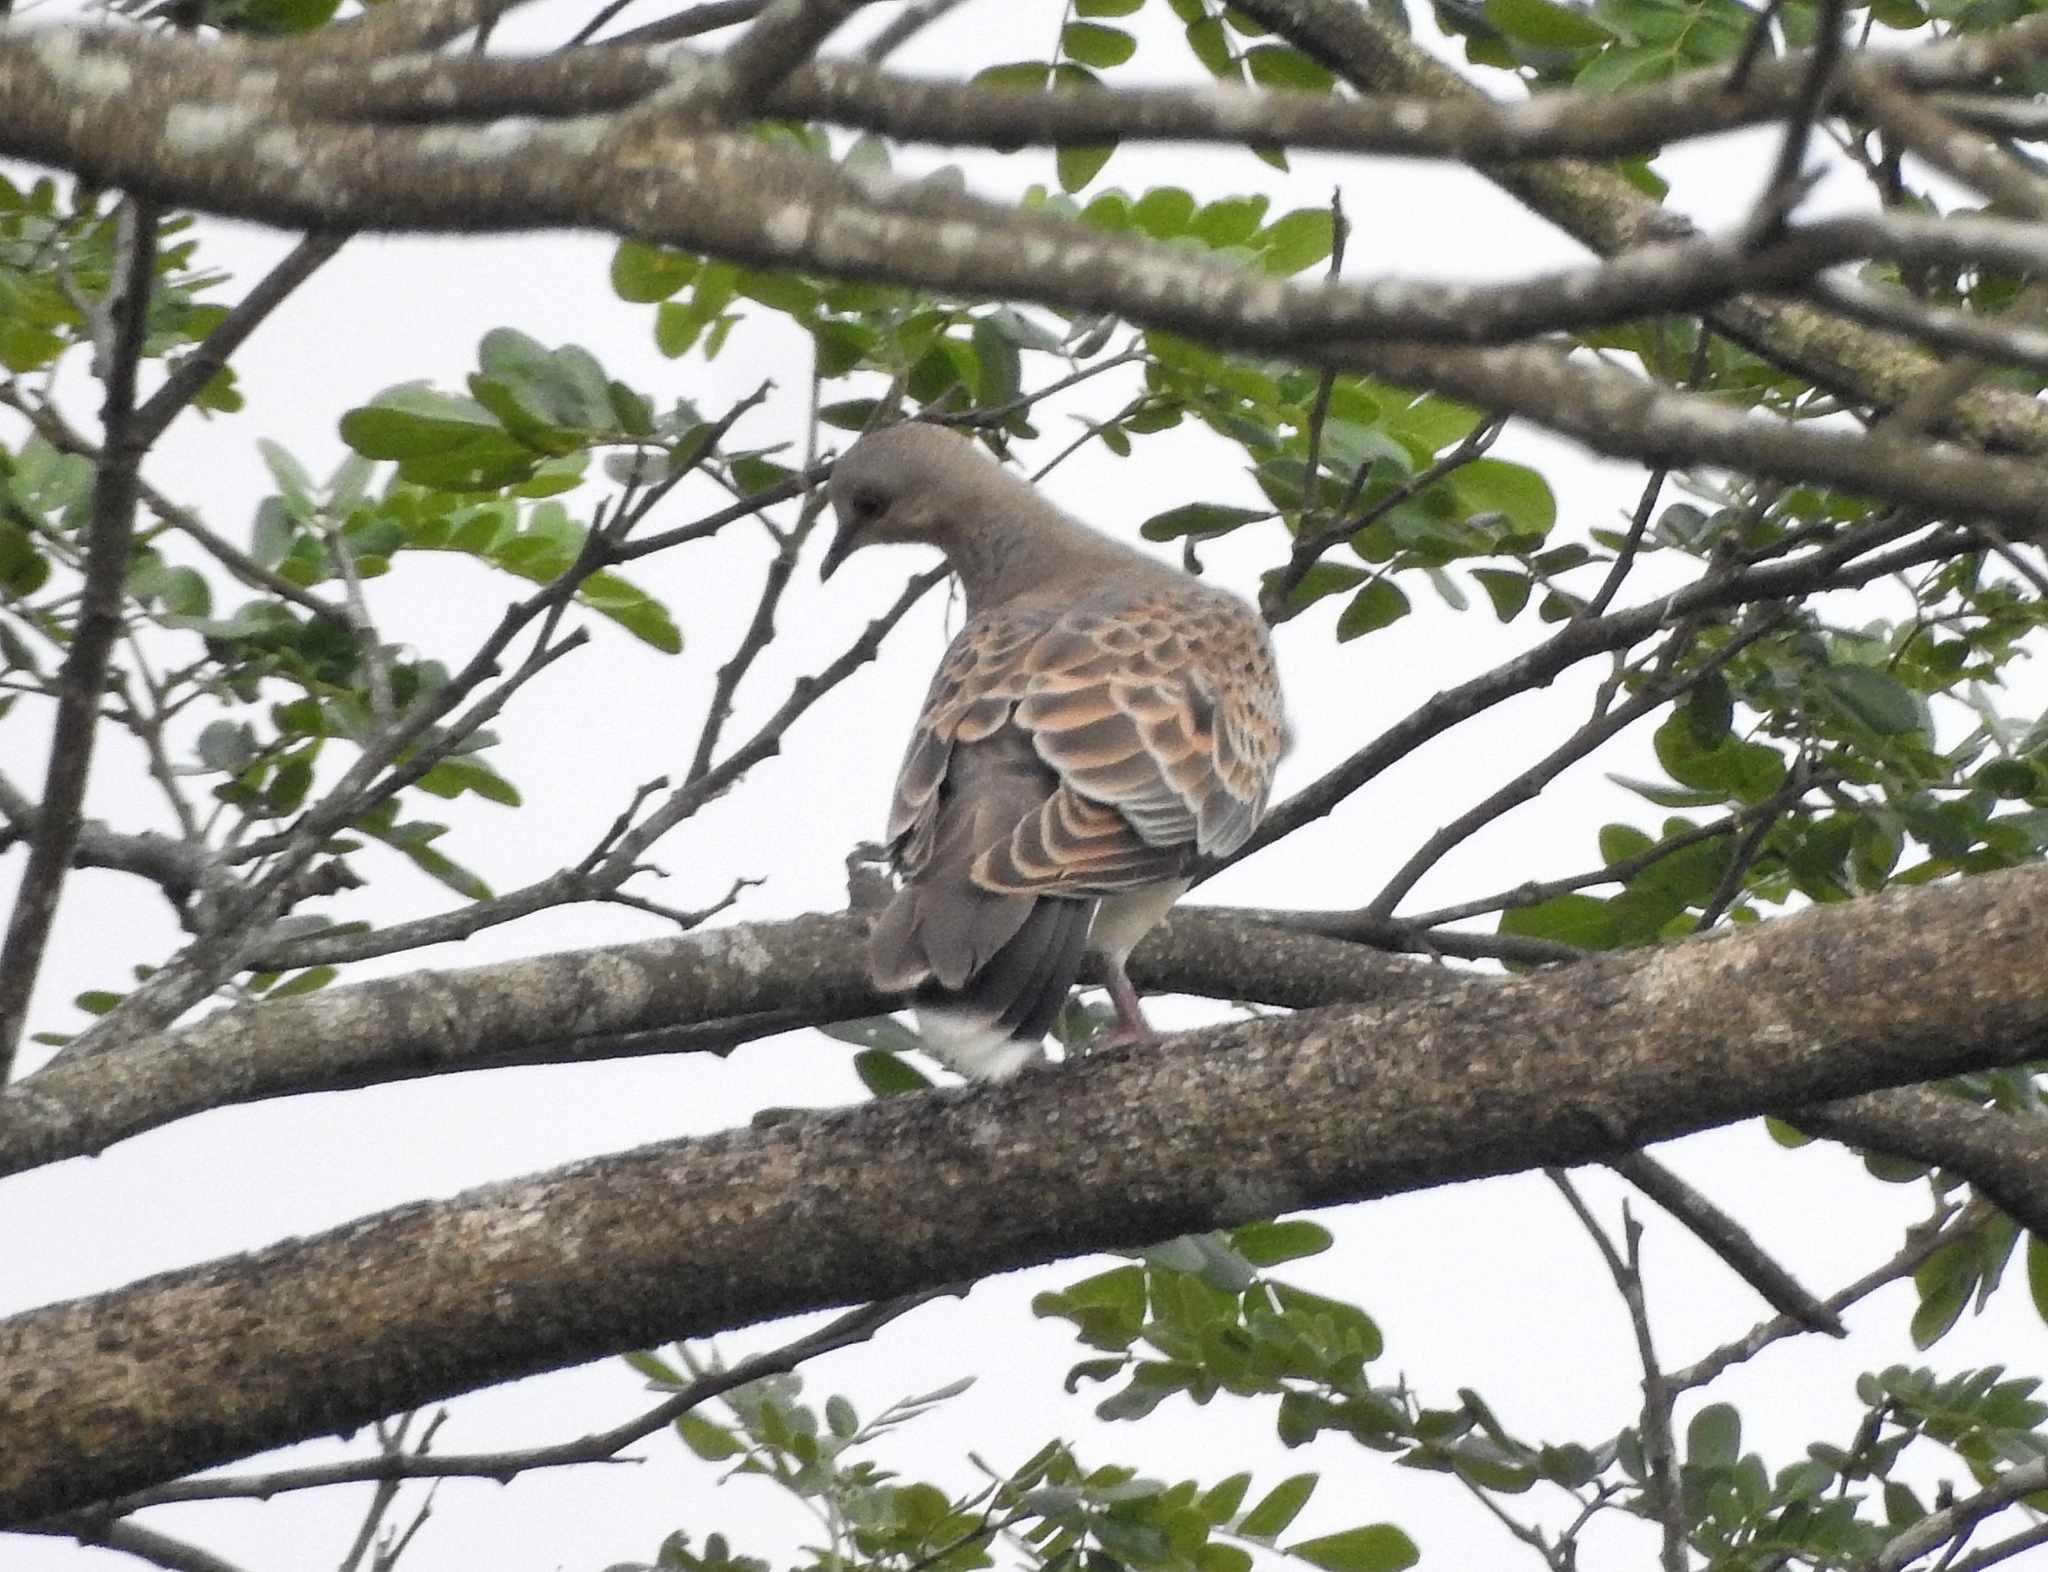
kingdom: Animalia
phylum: Chordata
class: Aves
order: Columbiformes
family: Columbidae
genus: Streptopelia
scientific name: Streptopelia orientalis
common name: Oriental turtle dove
